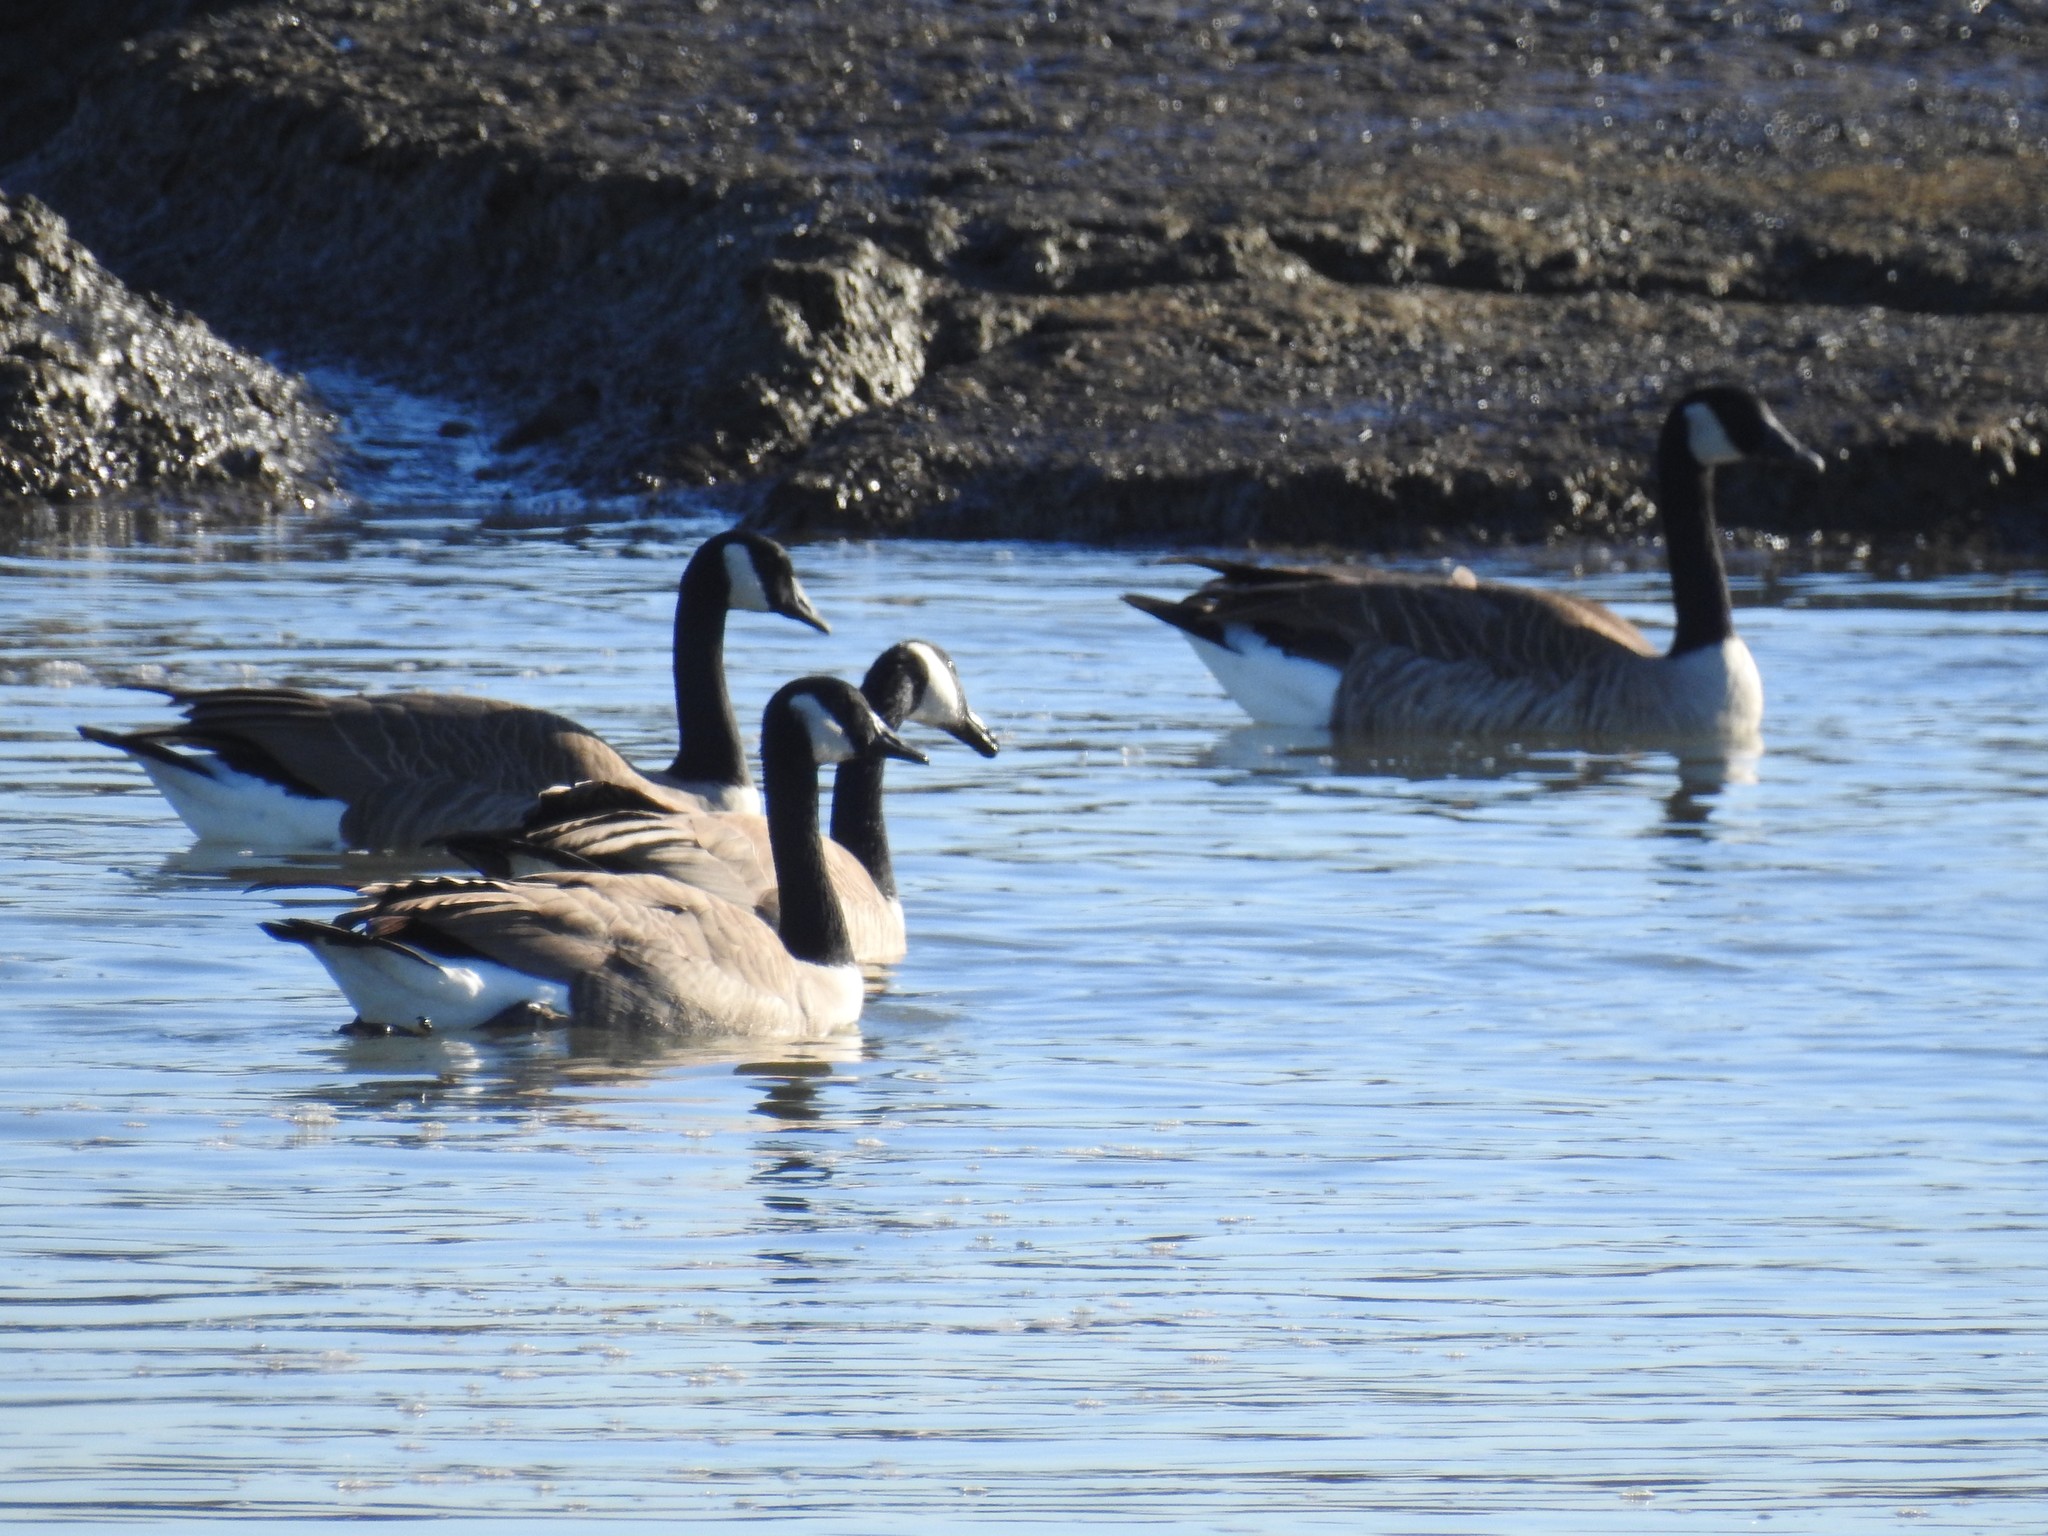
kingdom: Animalia
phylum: Chordata
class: Aves
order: Anseriformes
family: Anatidae
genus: Branta
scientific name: Branta canadensis
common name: Canada goose
